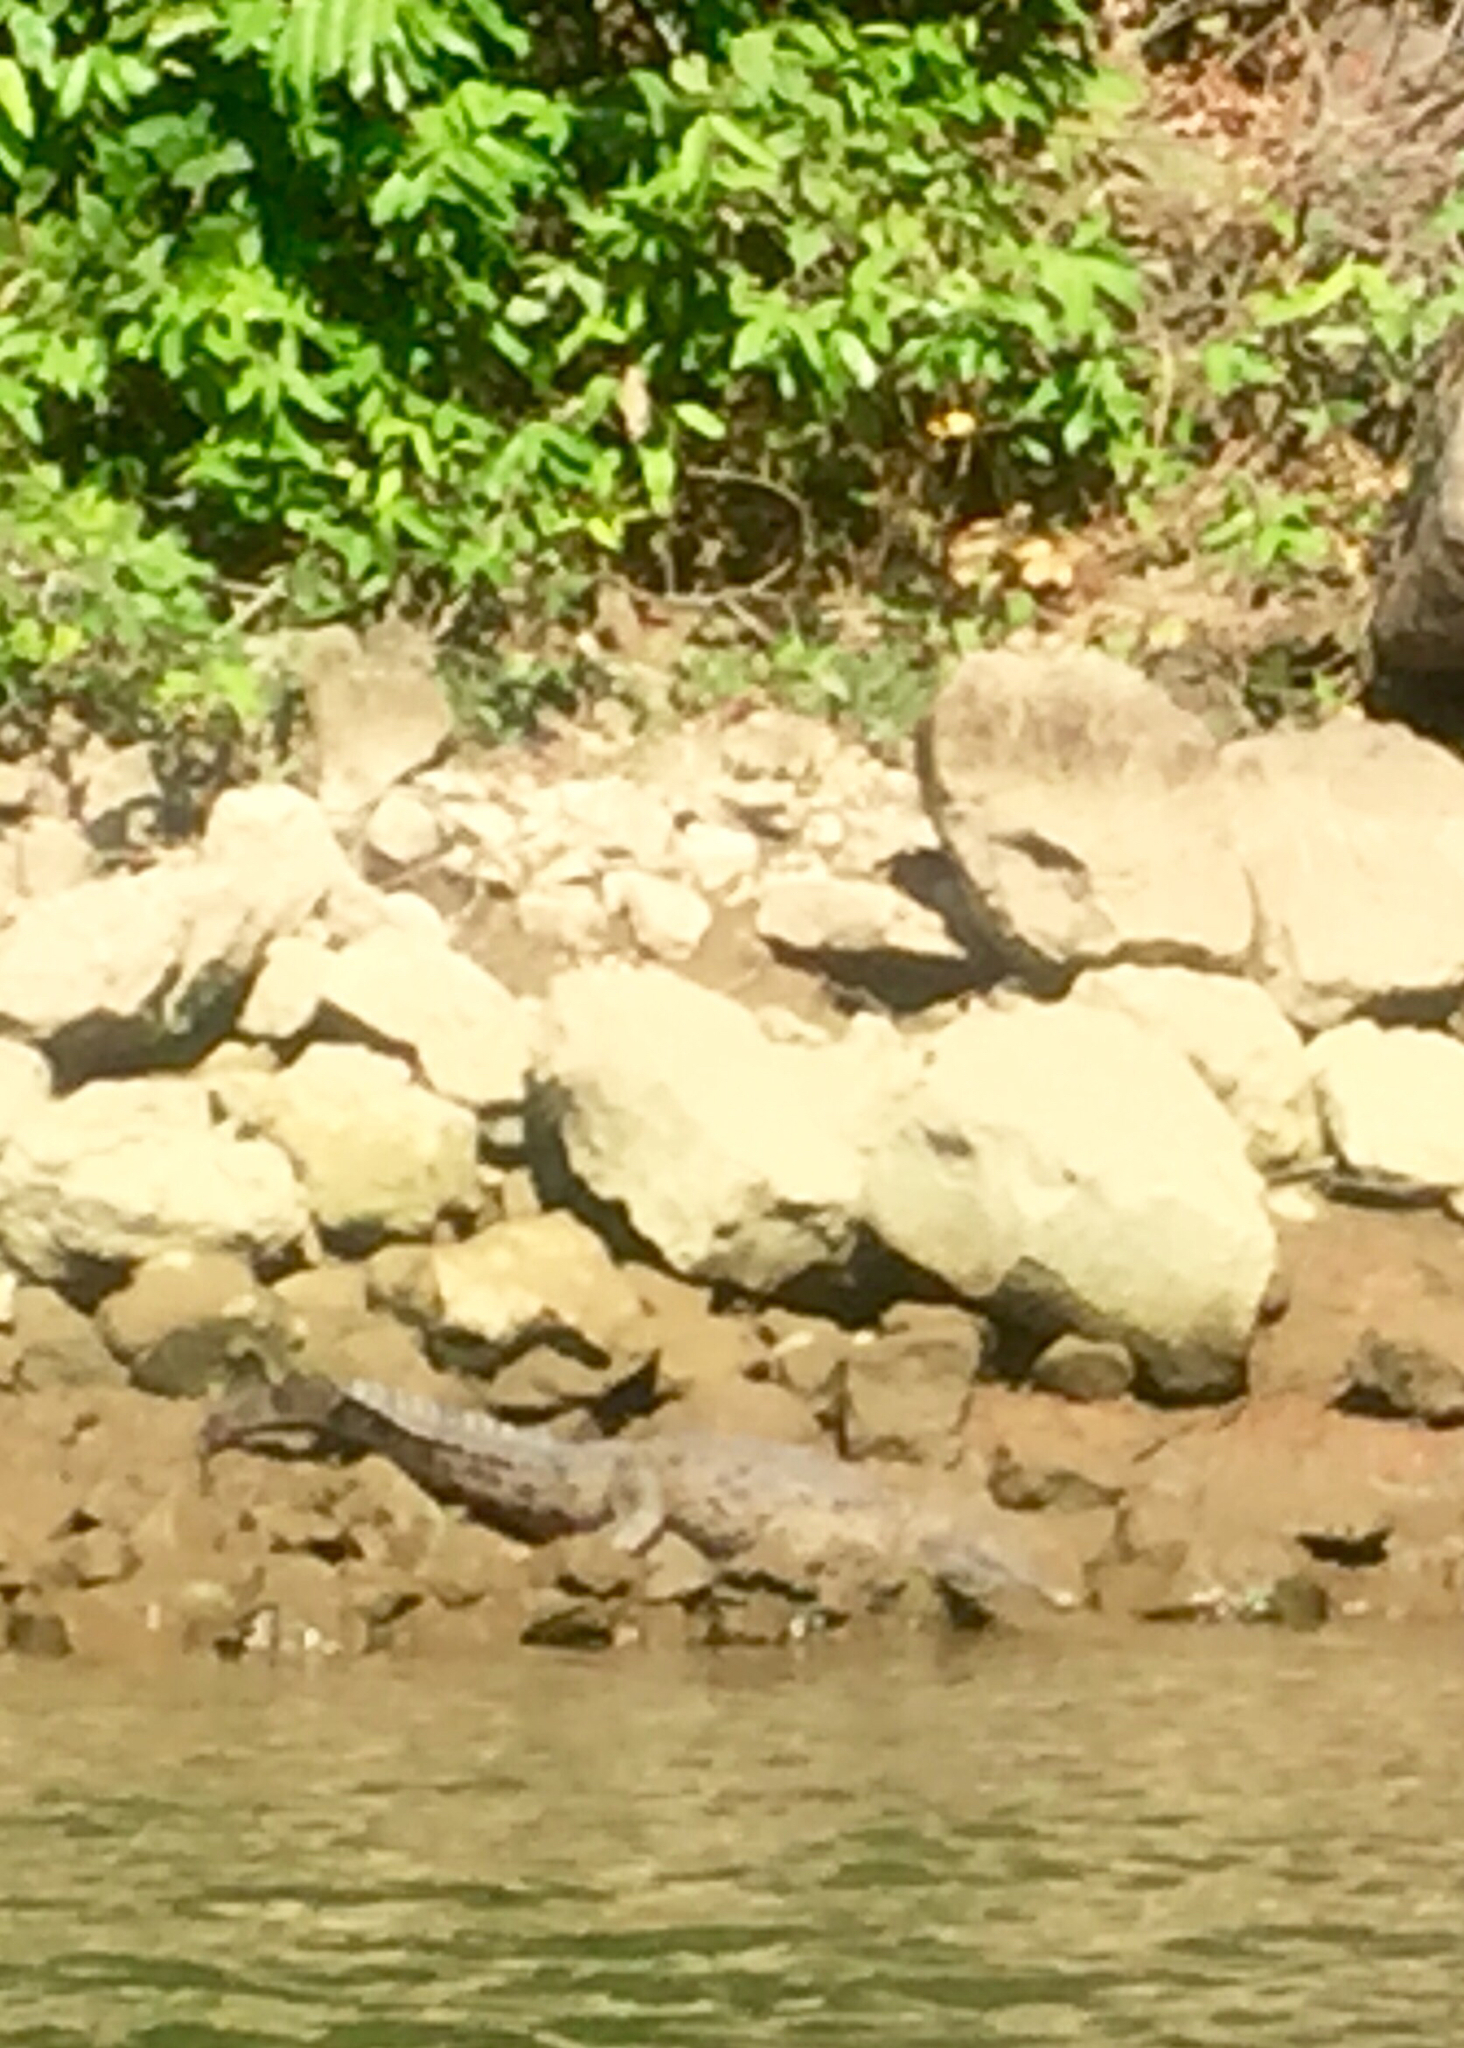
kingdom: Animalia
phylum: Chordata
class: Crocodylia
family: Crocodylidae
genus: Crocodylus
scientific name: Crocodylus acutus
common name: American crocodile
